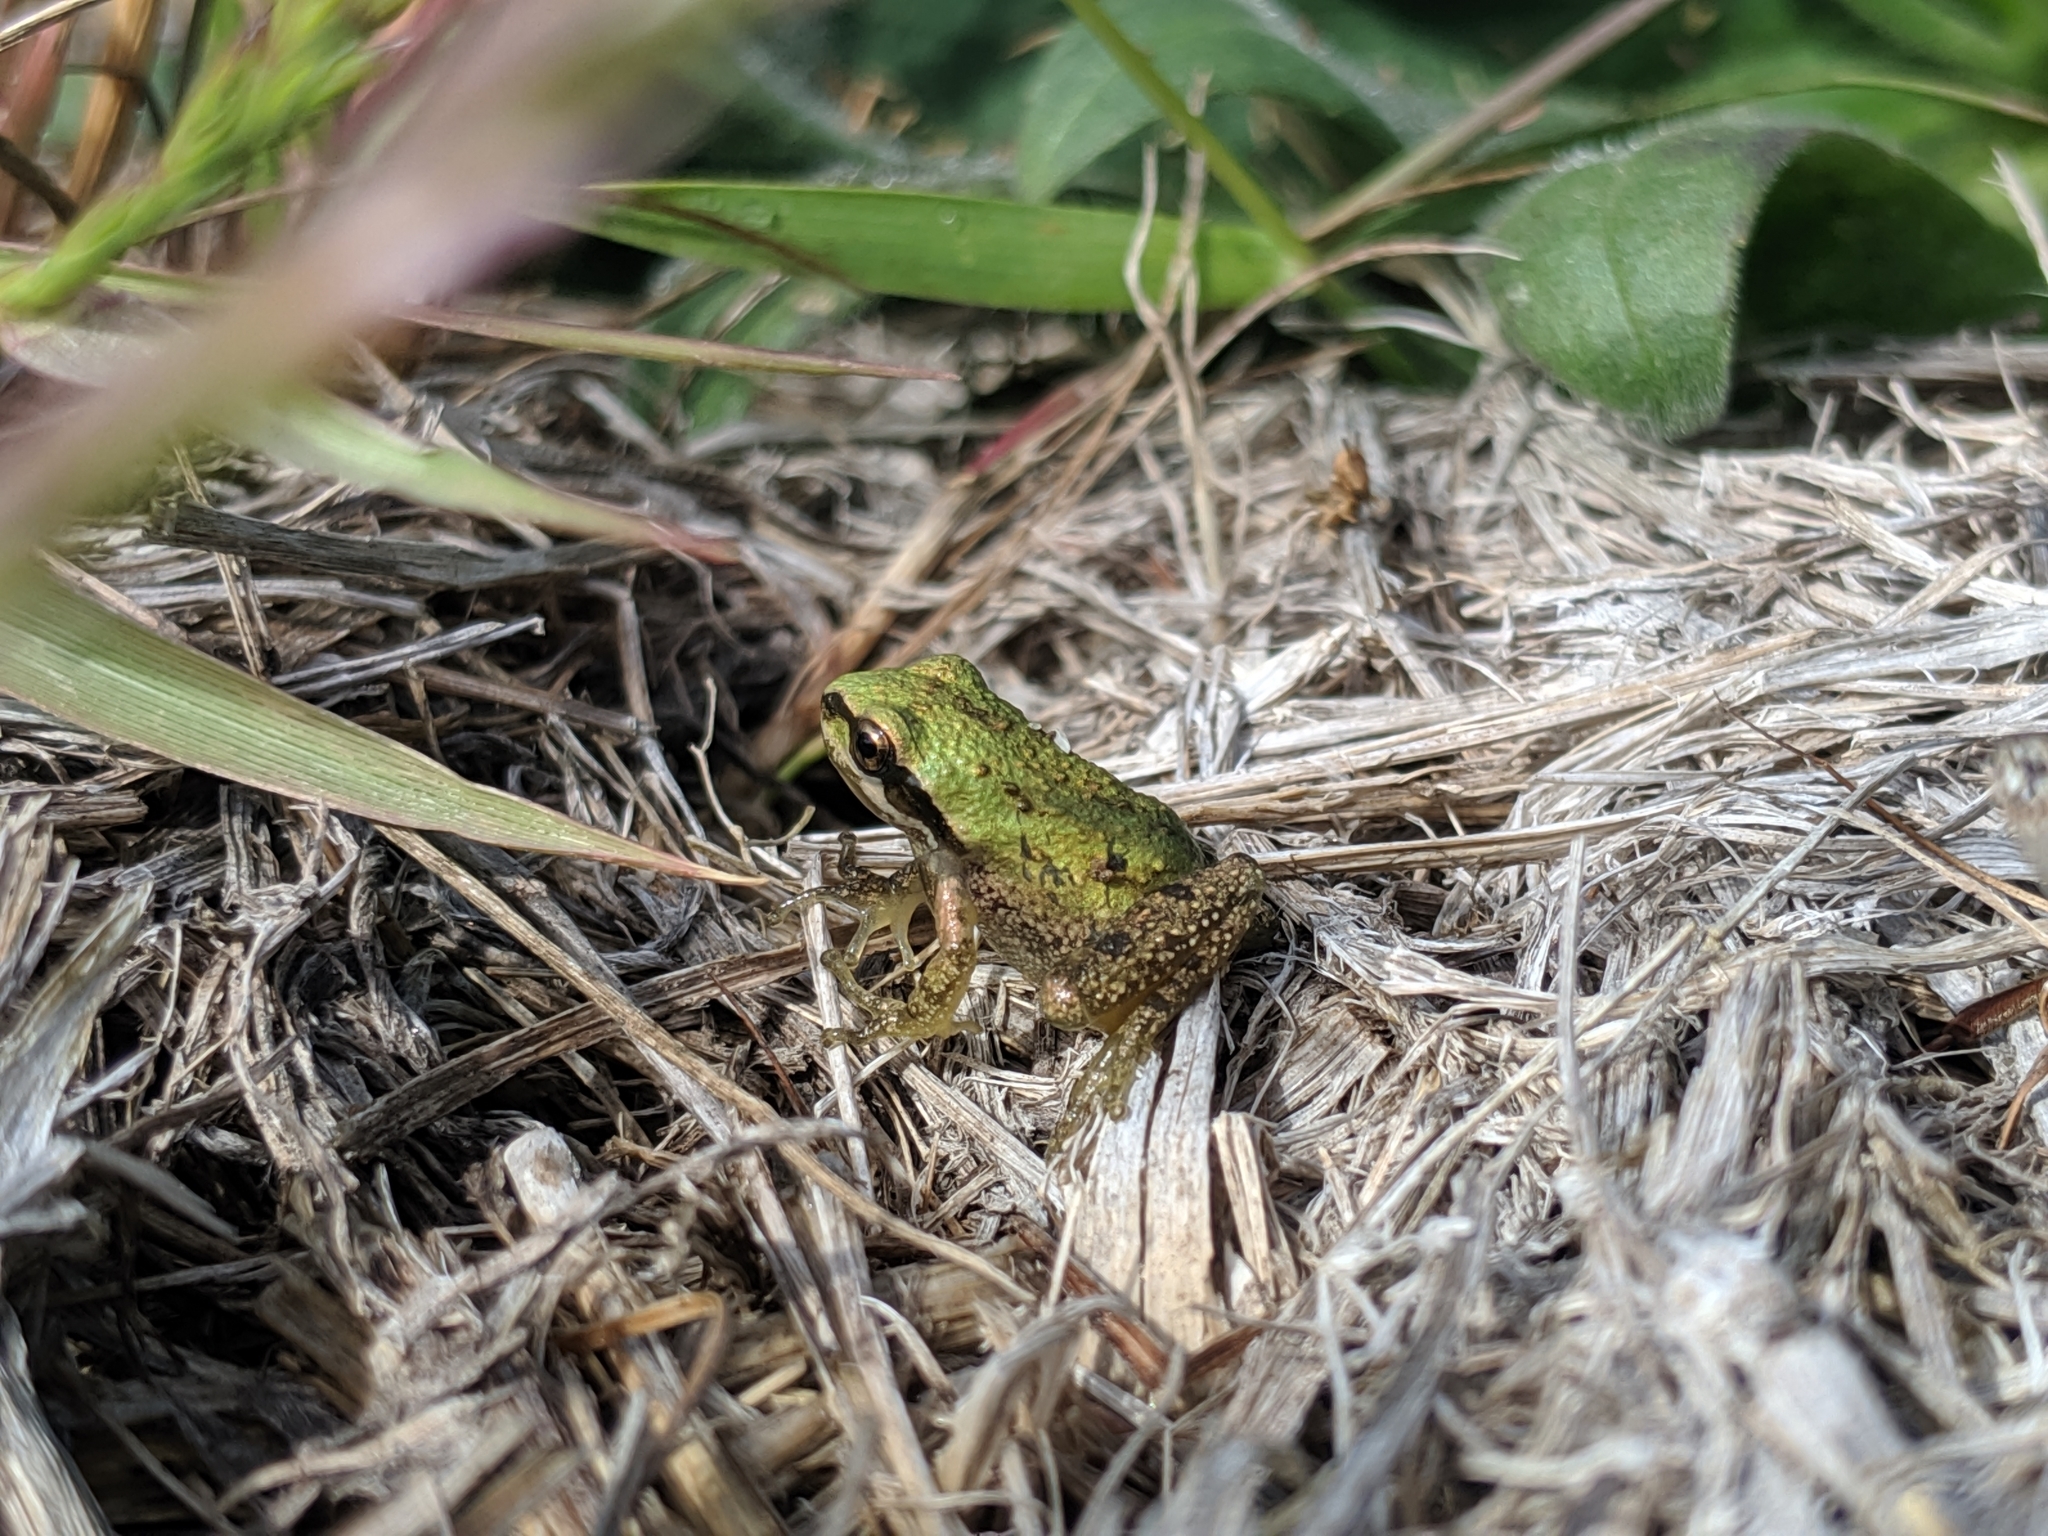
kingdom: Animalia
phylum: Chordata
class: Amphibia
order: Anura
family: Hylidae
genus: Pseudacris
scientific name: Pseudacris regilla
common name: Pacific chorus frog
